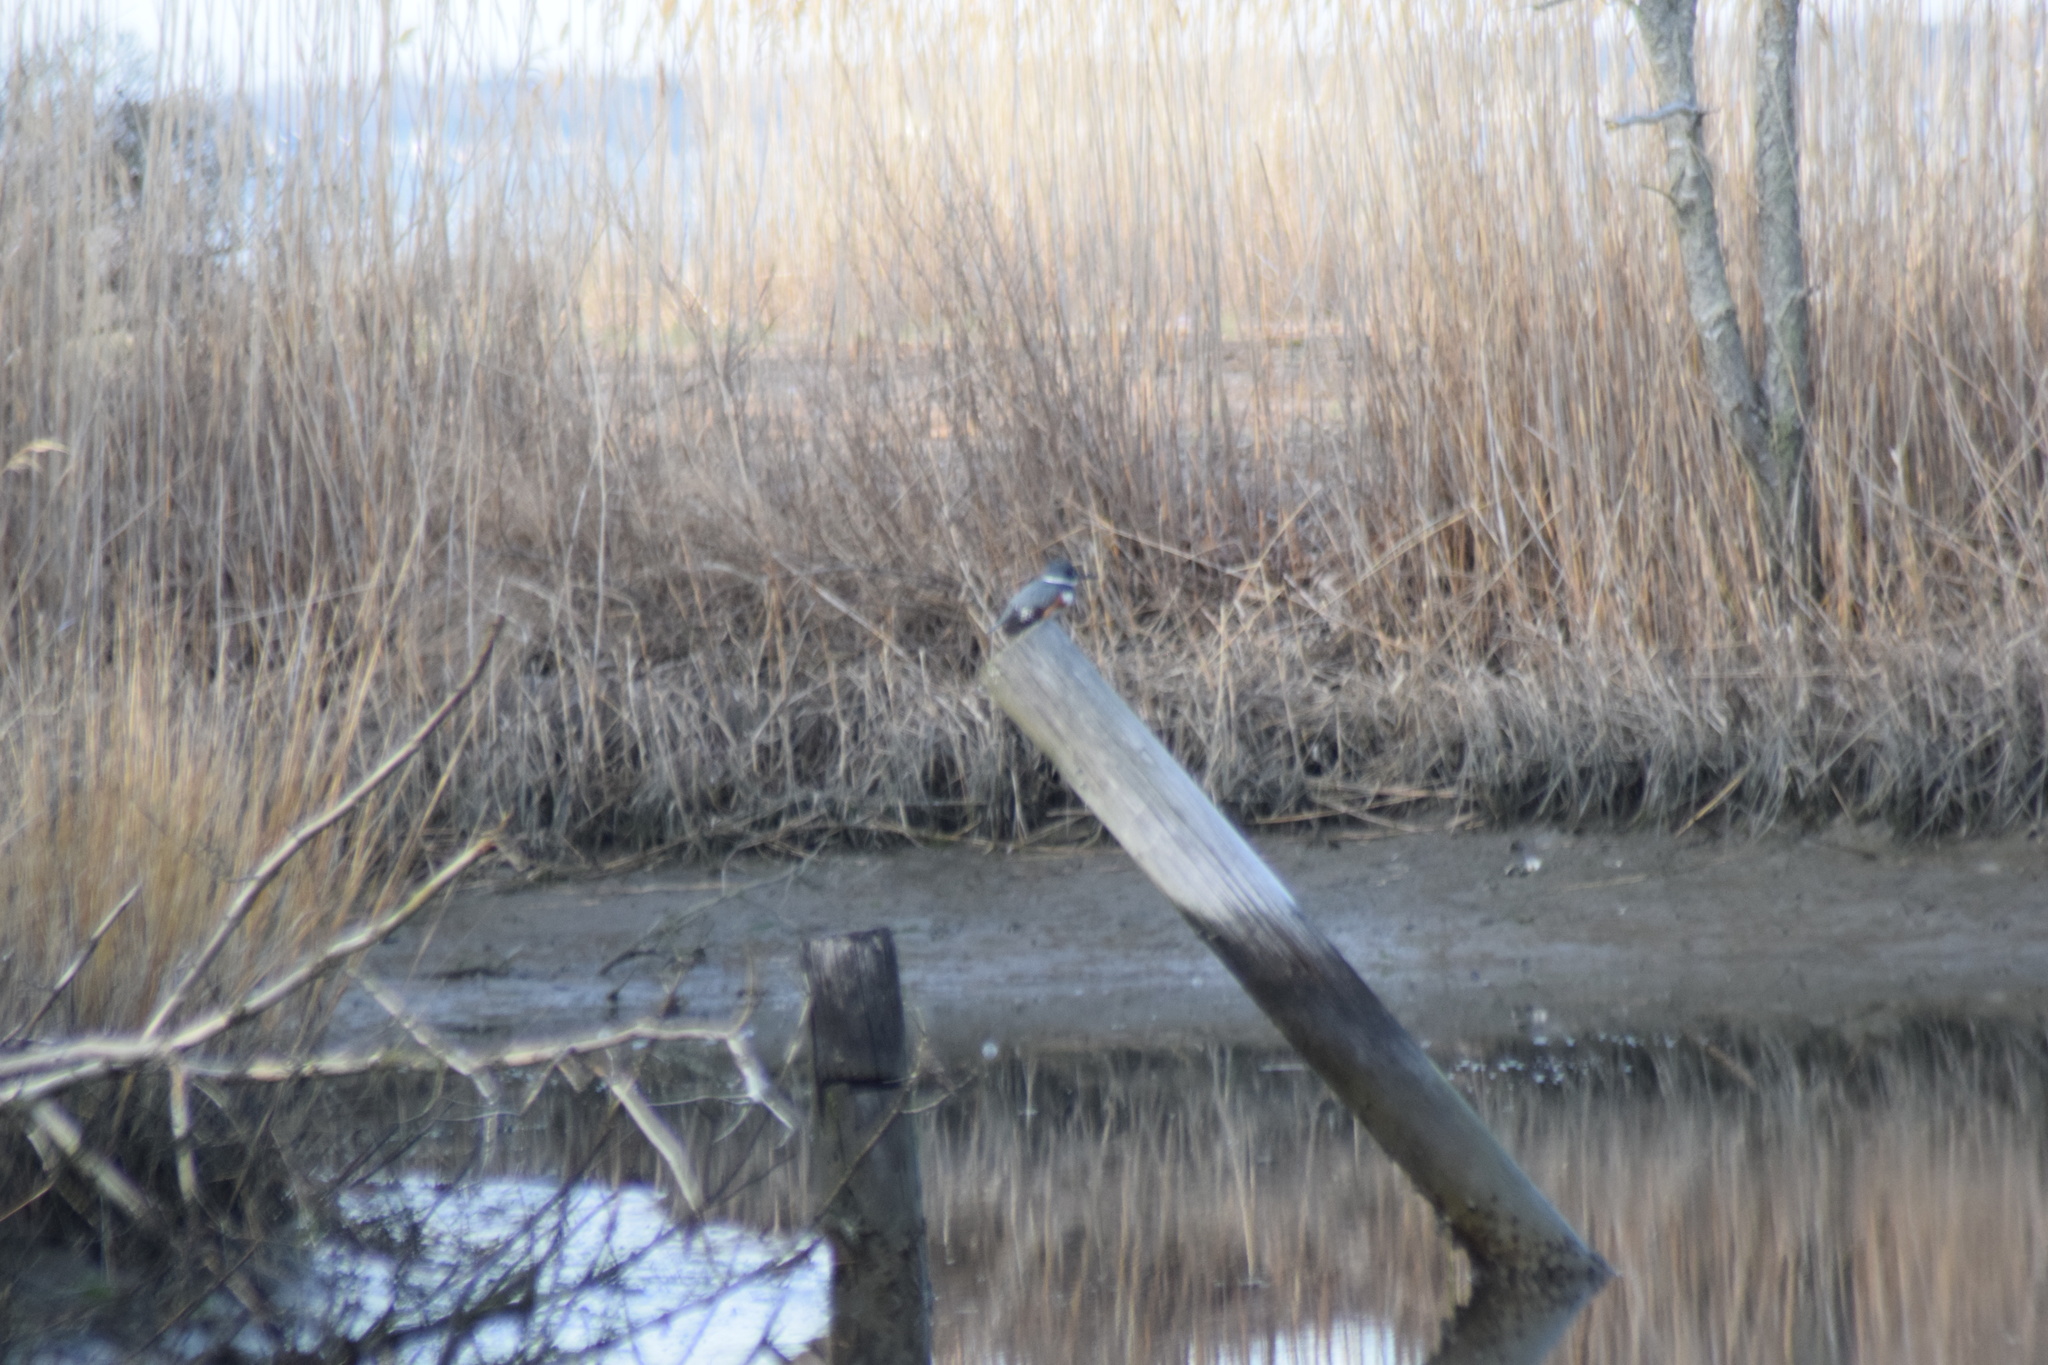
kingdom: Animalia
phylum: Chordata
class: Aves
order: Coraciiformes
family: Alcedinidae
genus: Megaceryle
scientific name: Megaceryle alcyon
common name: Belted kingfisher
